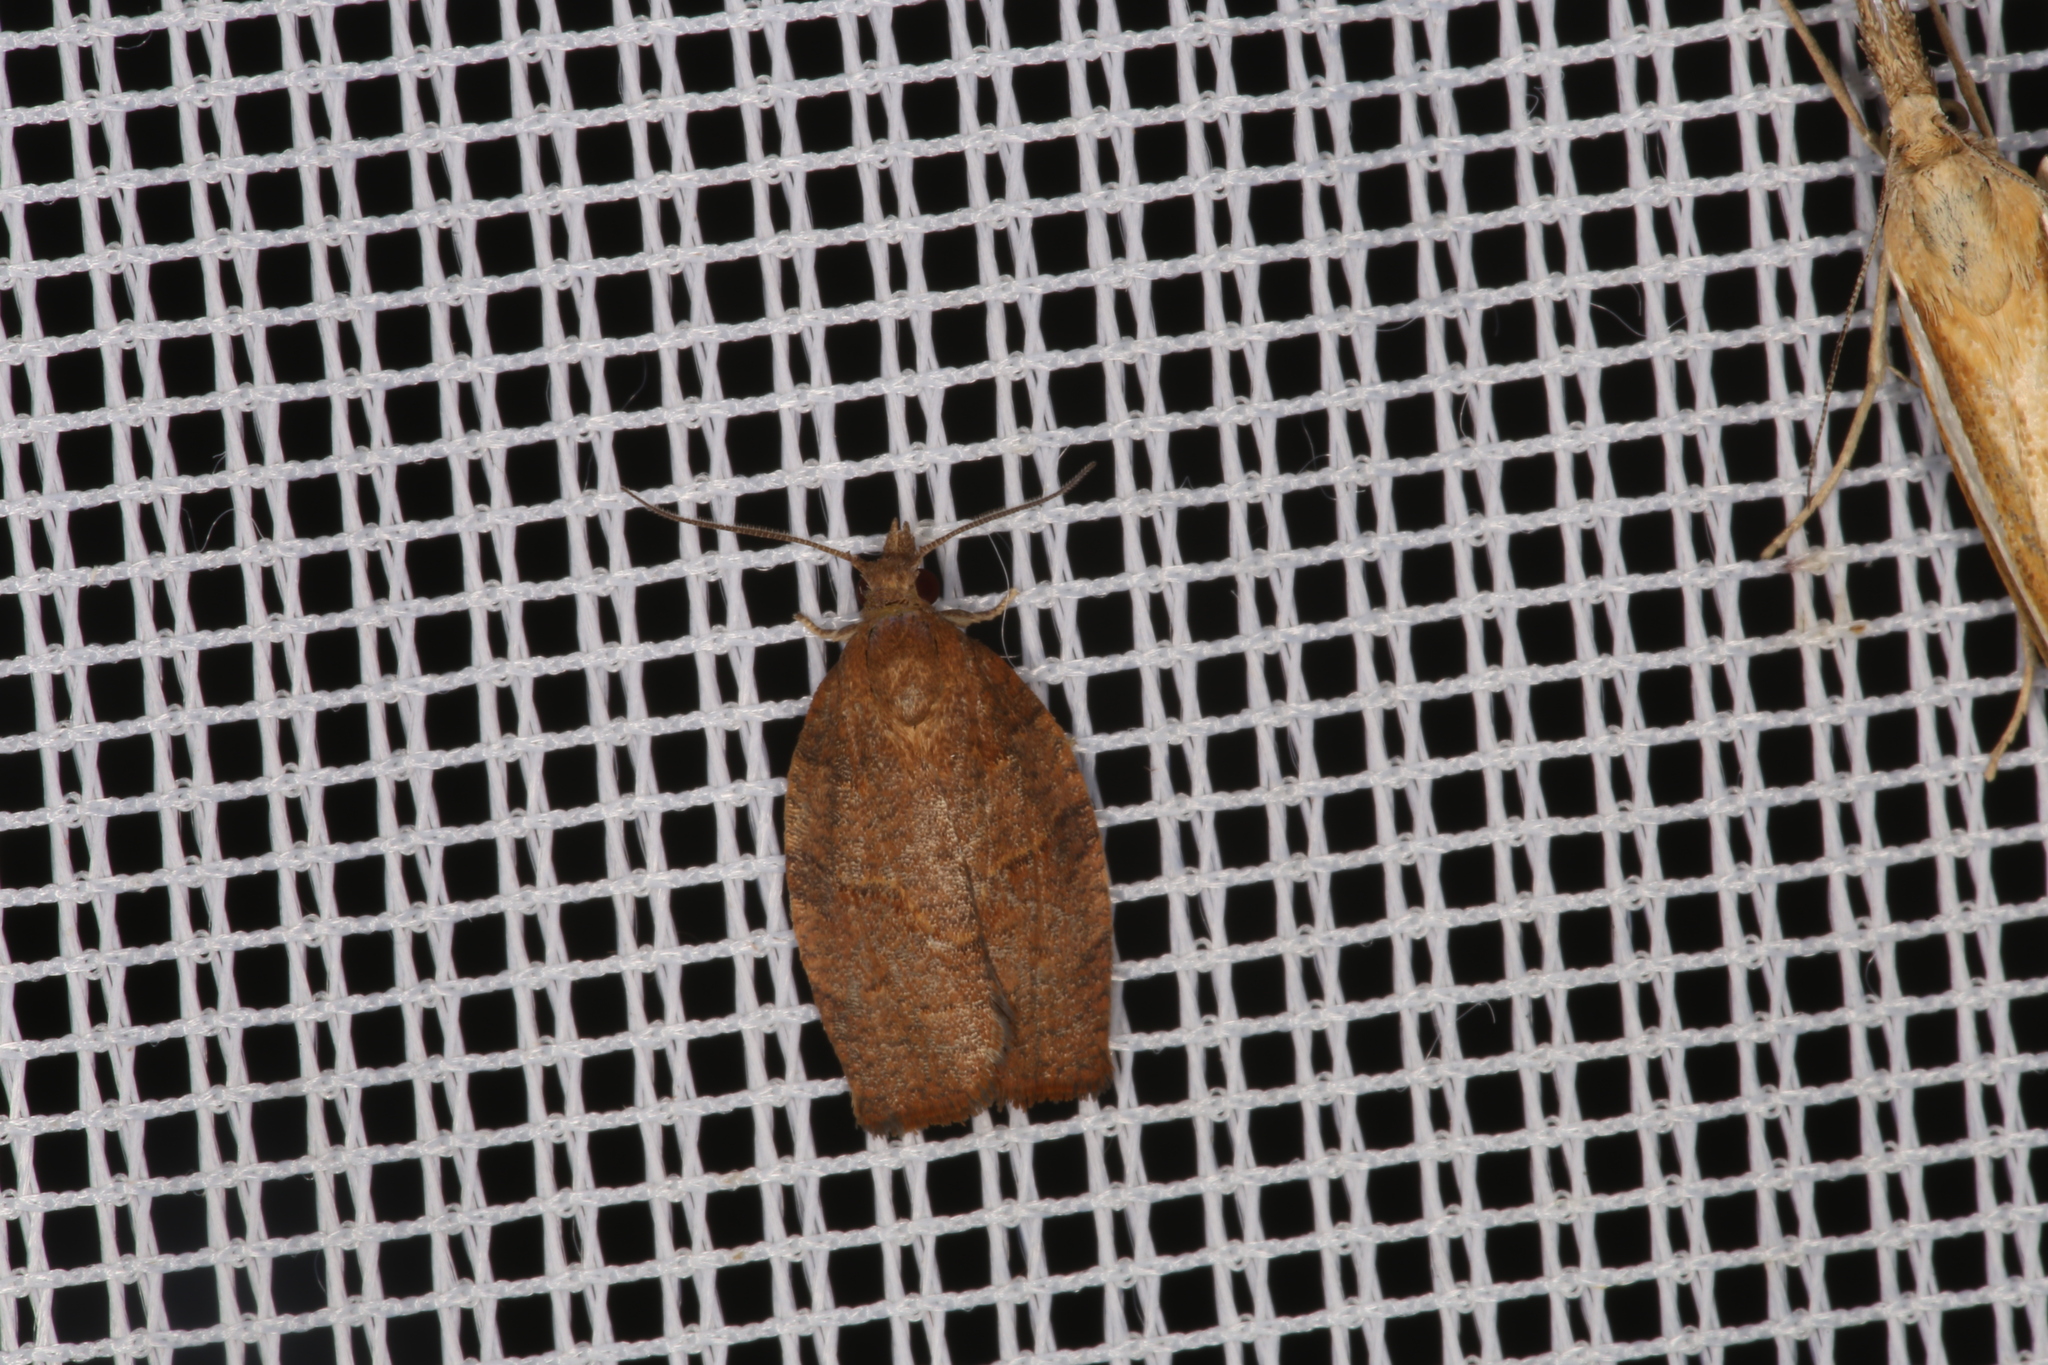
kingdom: Animalia
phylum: Arthropoda
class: Insecta
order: Lepidoptera
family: Tortricidae
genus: Pandemis
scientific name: Pandemis heparana
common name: Dark fruit-tree tortrix
